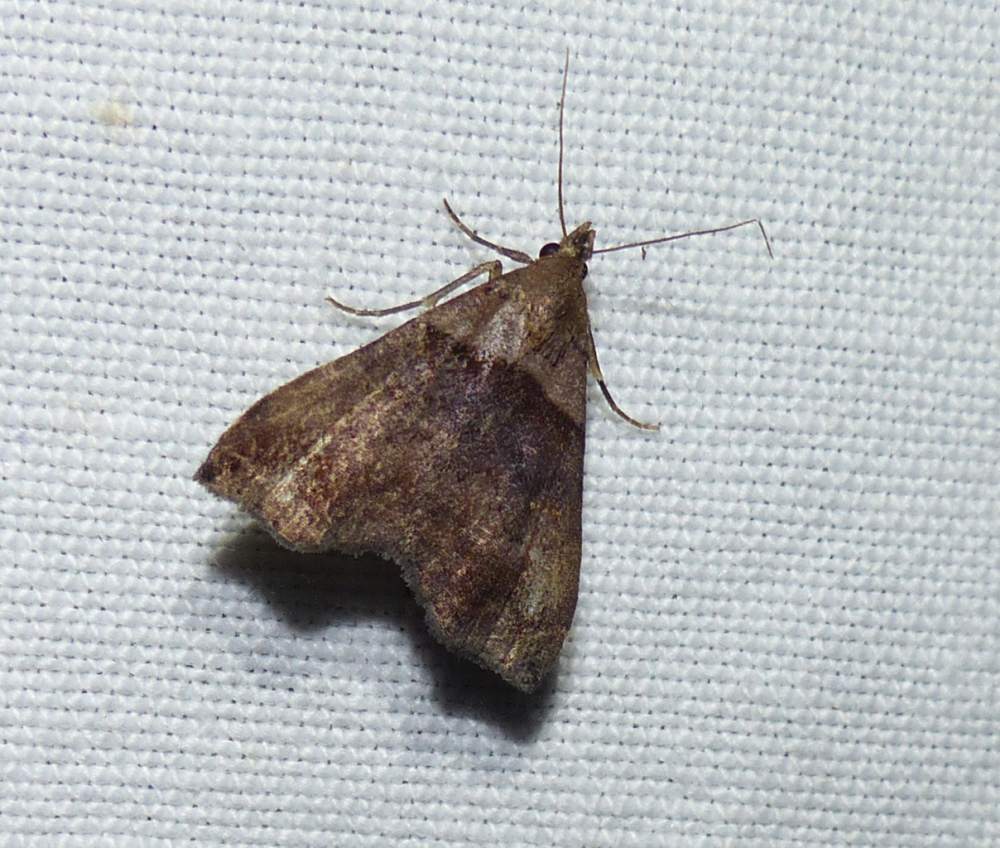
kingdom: Animalia
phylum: Arthropoda
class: Insecta
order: Lepidoptera
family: Erebidae
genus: Lascoria
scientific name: Lascoria ambigualis
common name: Ambiguous moth
